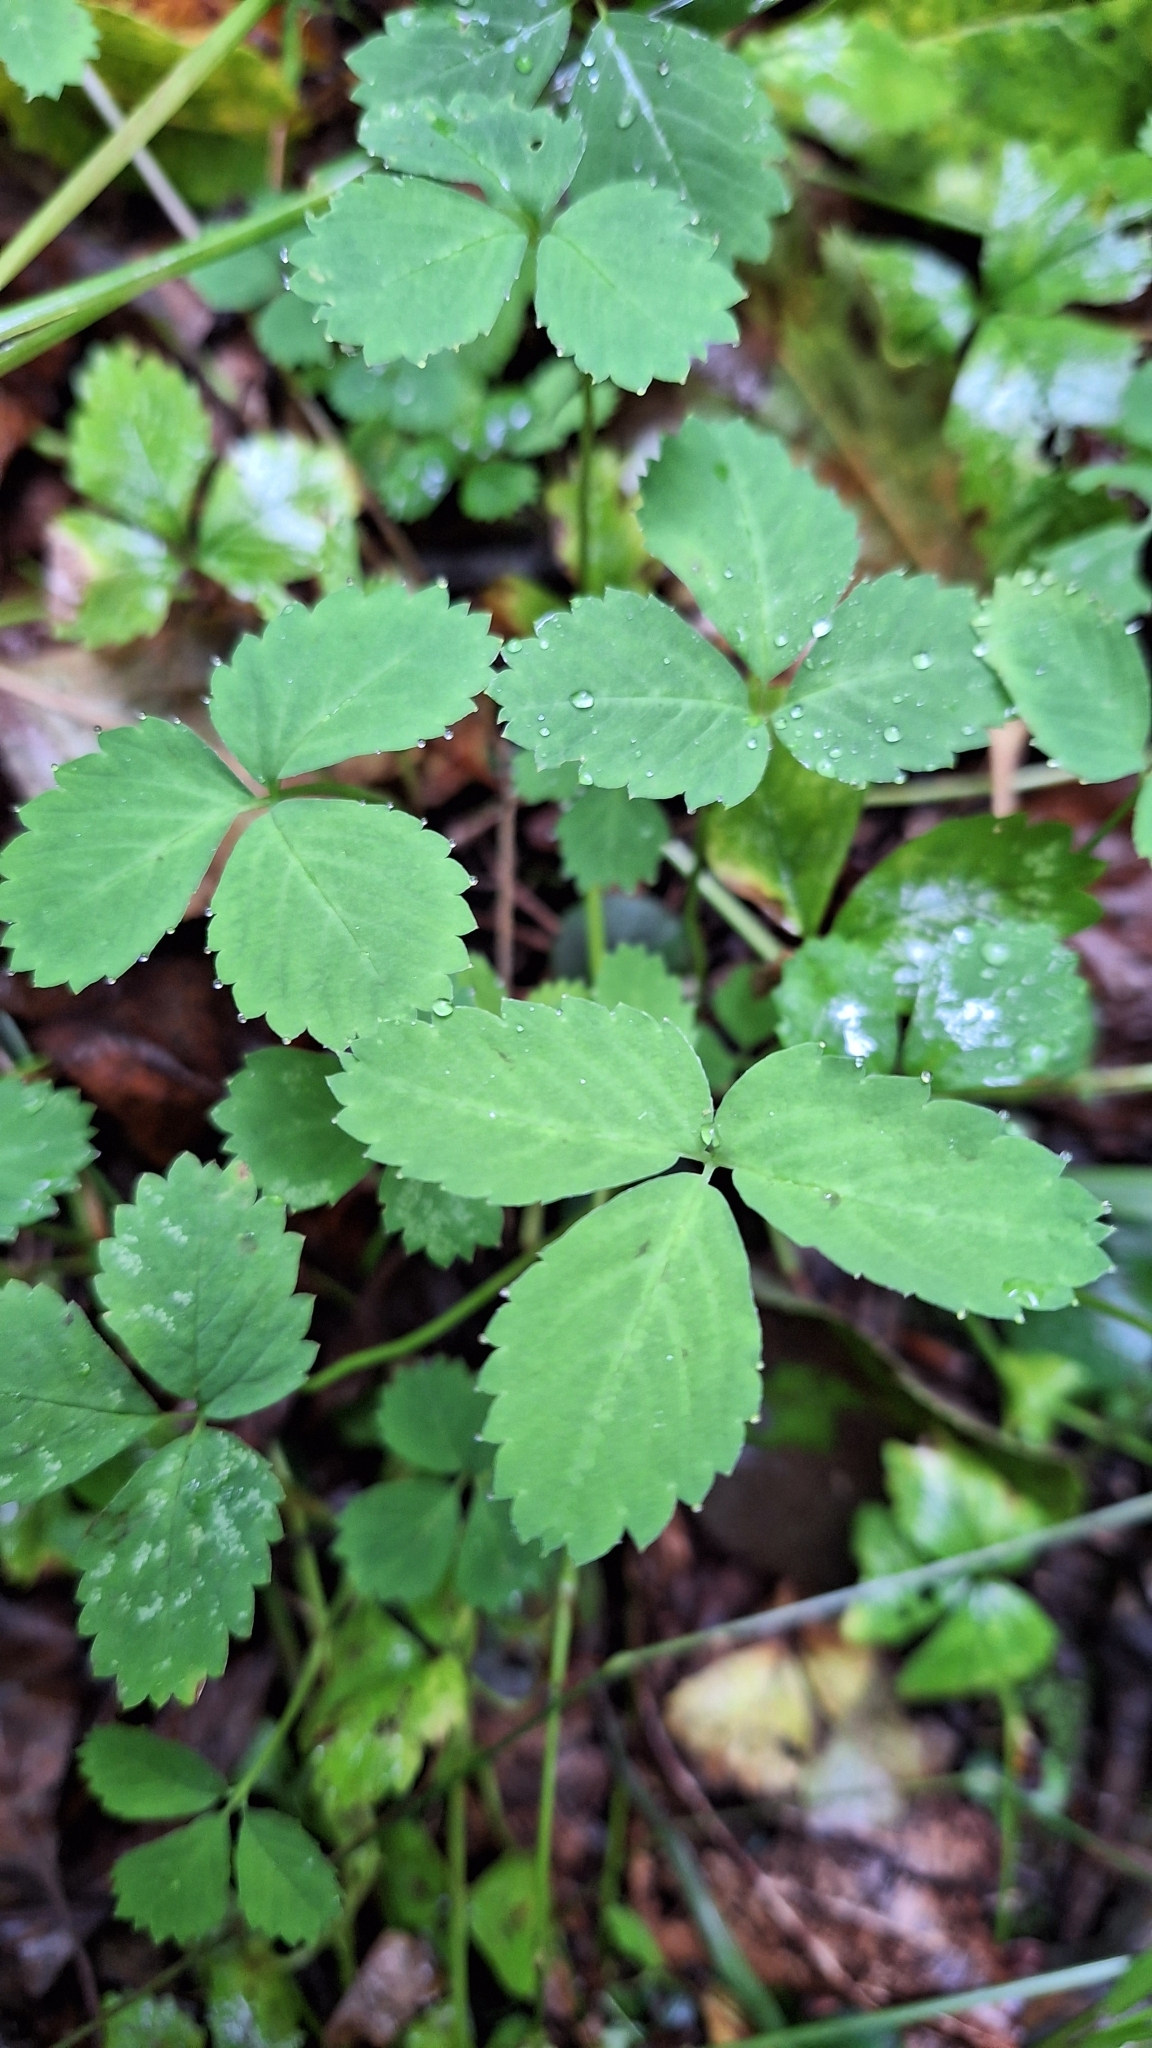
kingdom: Plantae
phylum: Tracheophyta
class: Magnoliopsida
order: Rosales
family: Rosaceae
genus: Potentilla
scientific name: Potentilla centigrana
